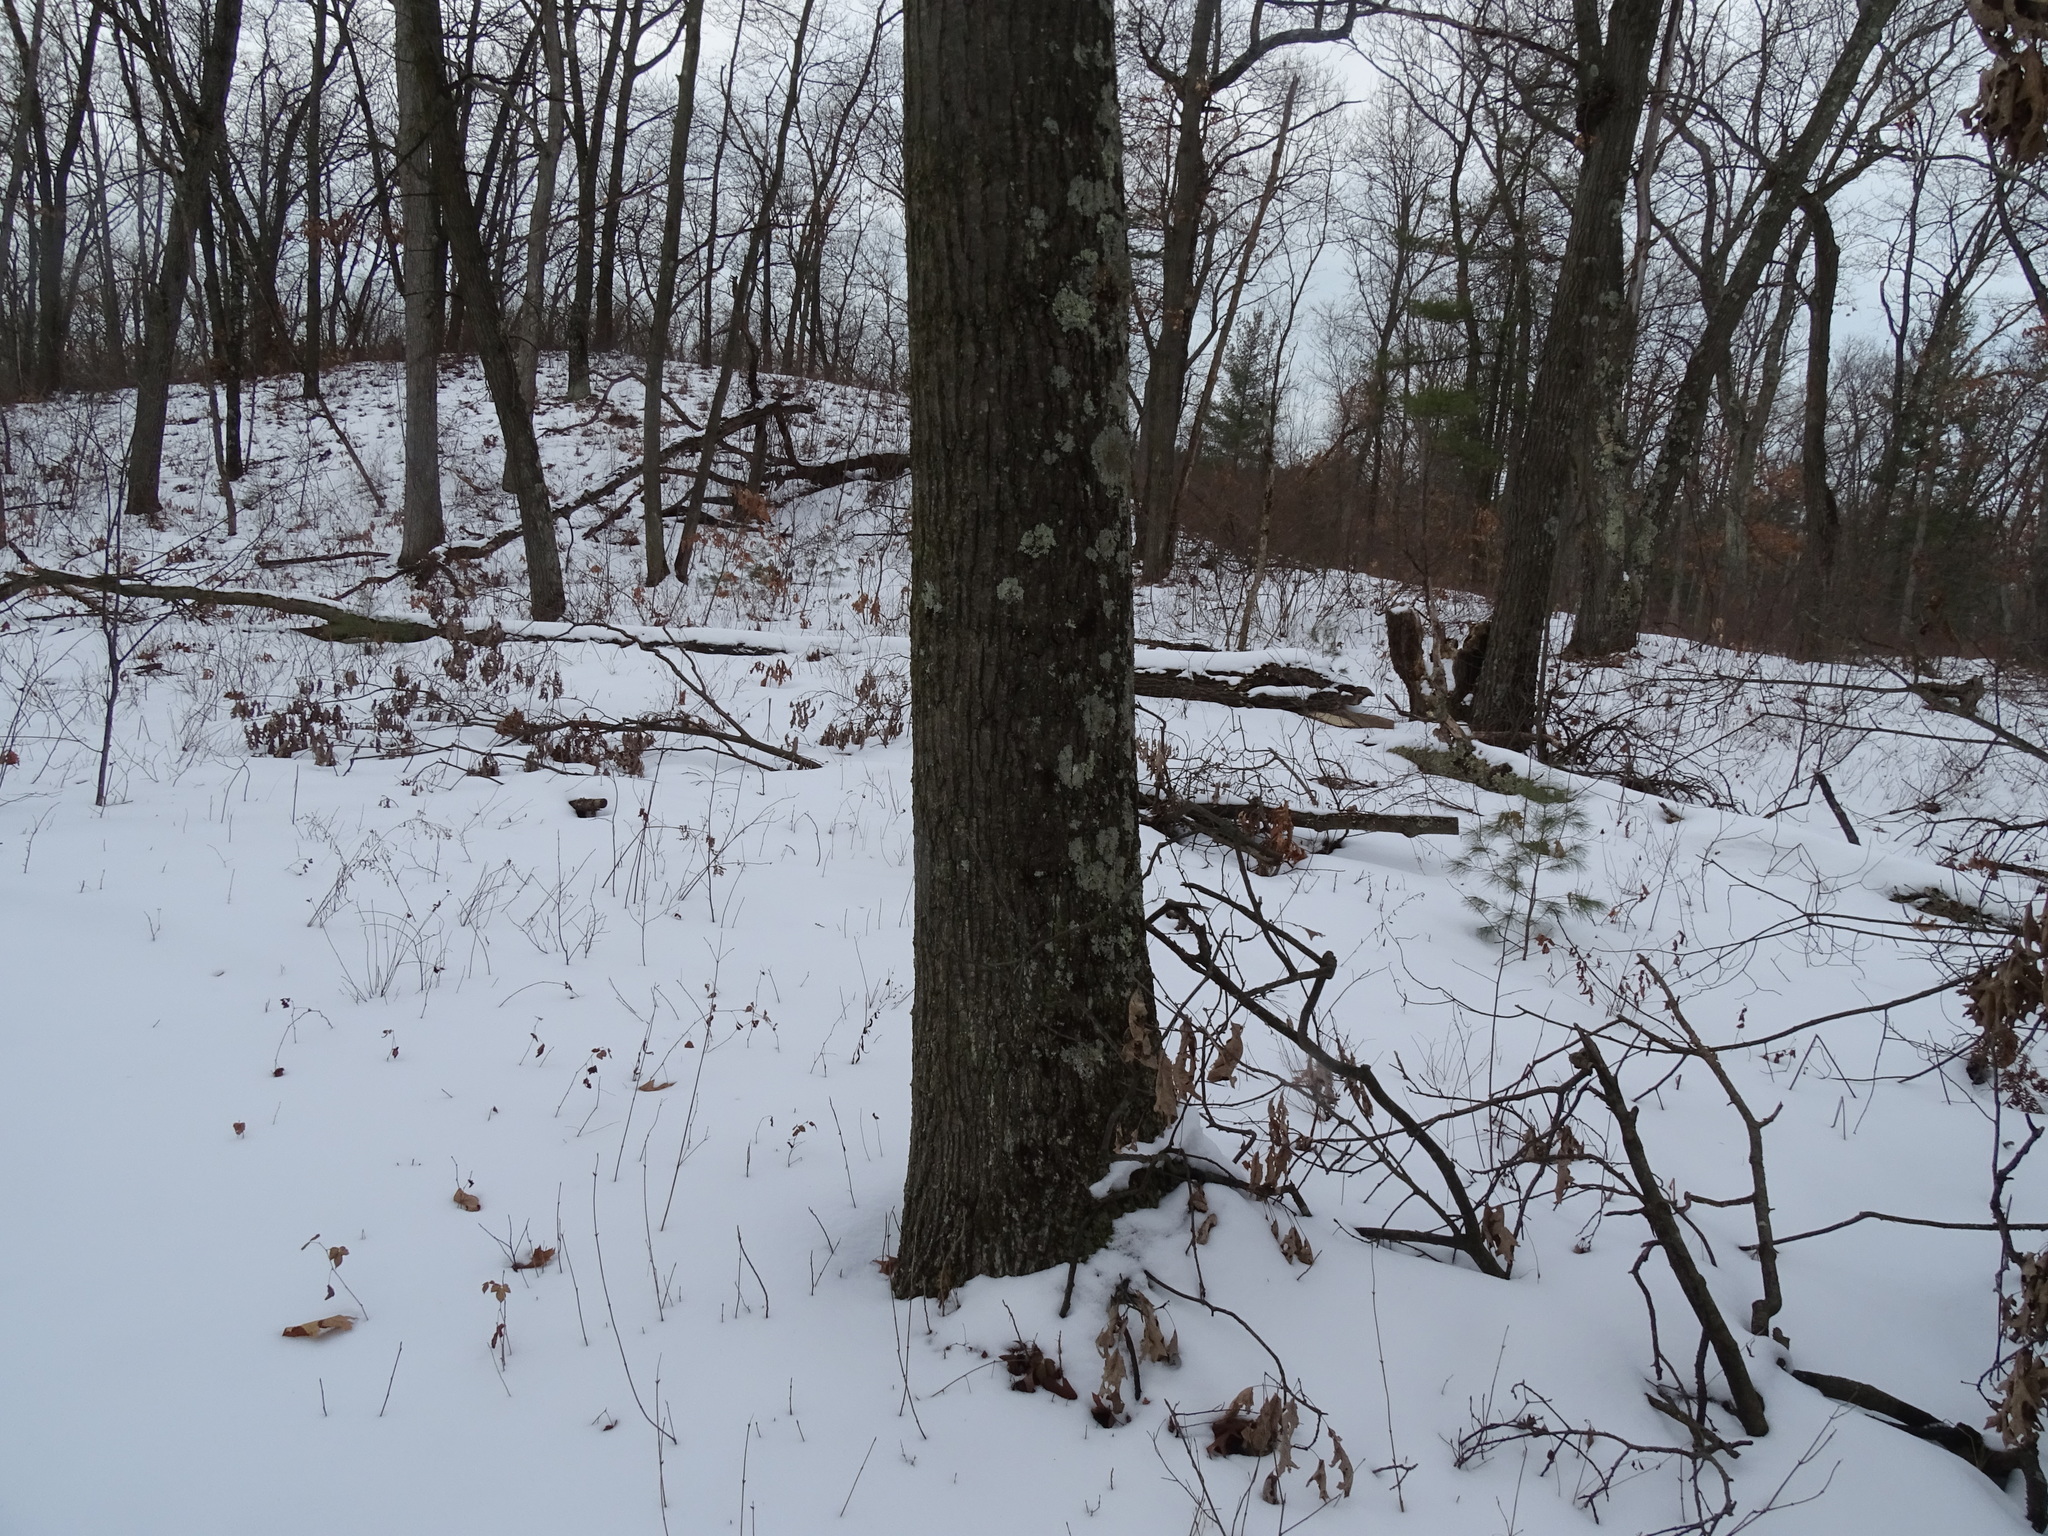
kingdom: Plantae
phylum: Tracheophyta
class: Magnoliopsida
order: Fagales
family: Fagaceae
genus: Quercus
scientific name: Quercus rubra
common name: Red oak
